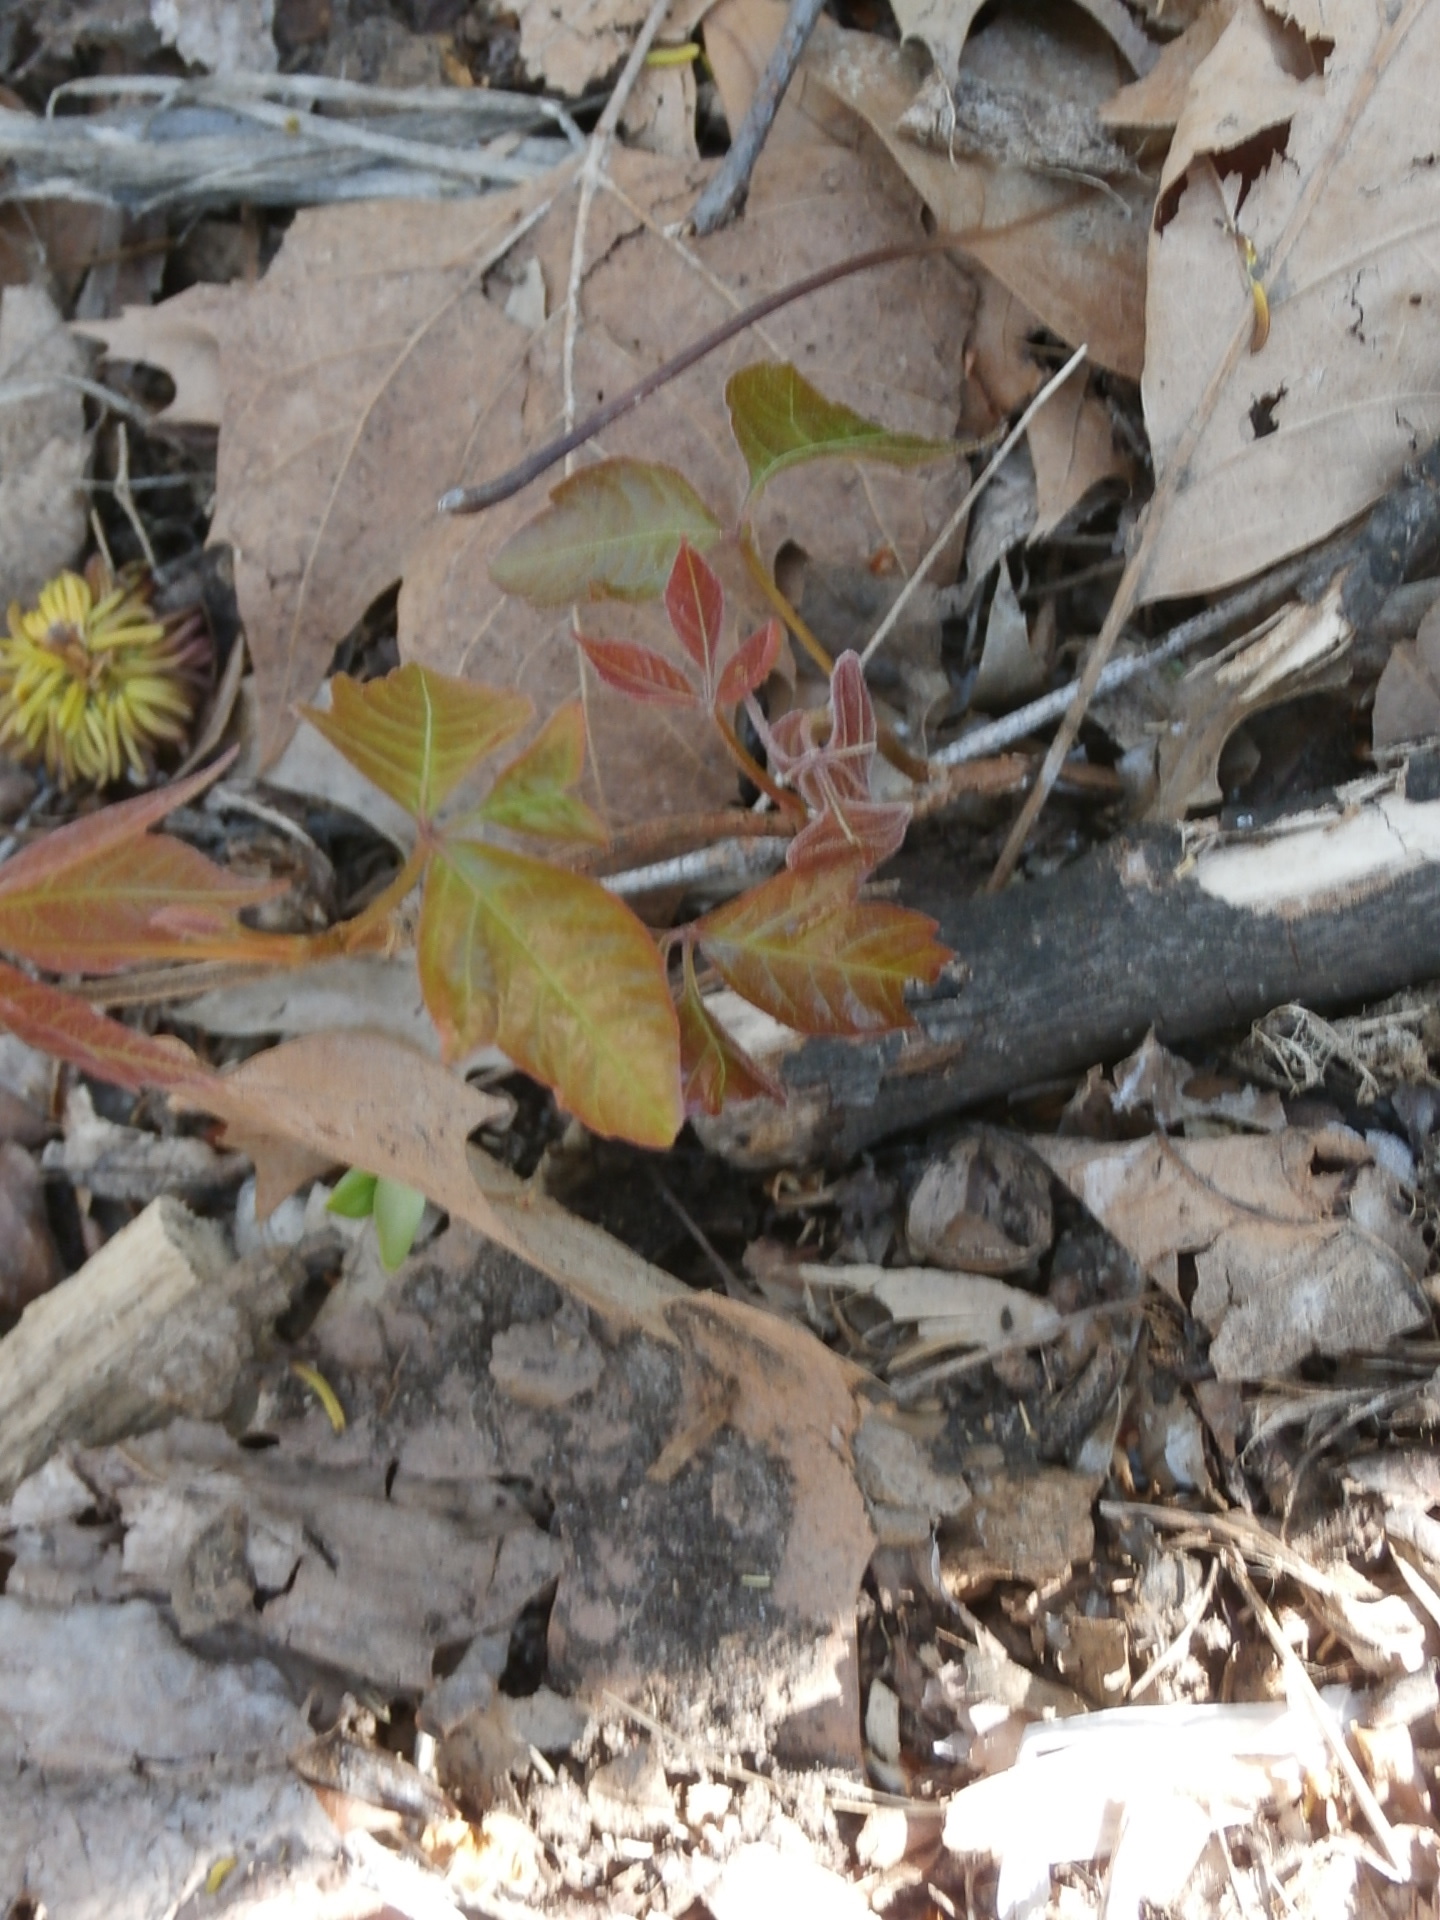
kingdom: Plantae
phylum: Tracheophyta
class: Magnoliopsida
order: Sapindales
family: Anacardiaceae
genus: Toxicodendron
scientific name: Toxicodendron radicans
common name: Poison ivy
